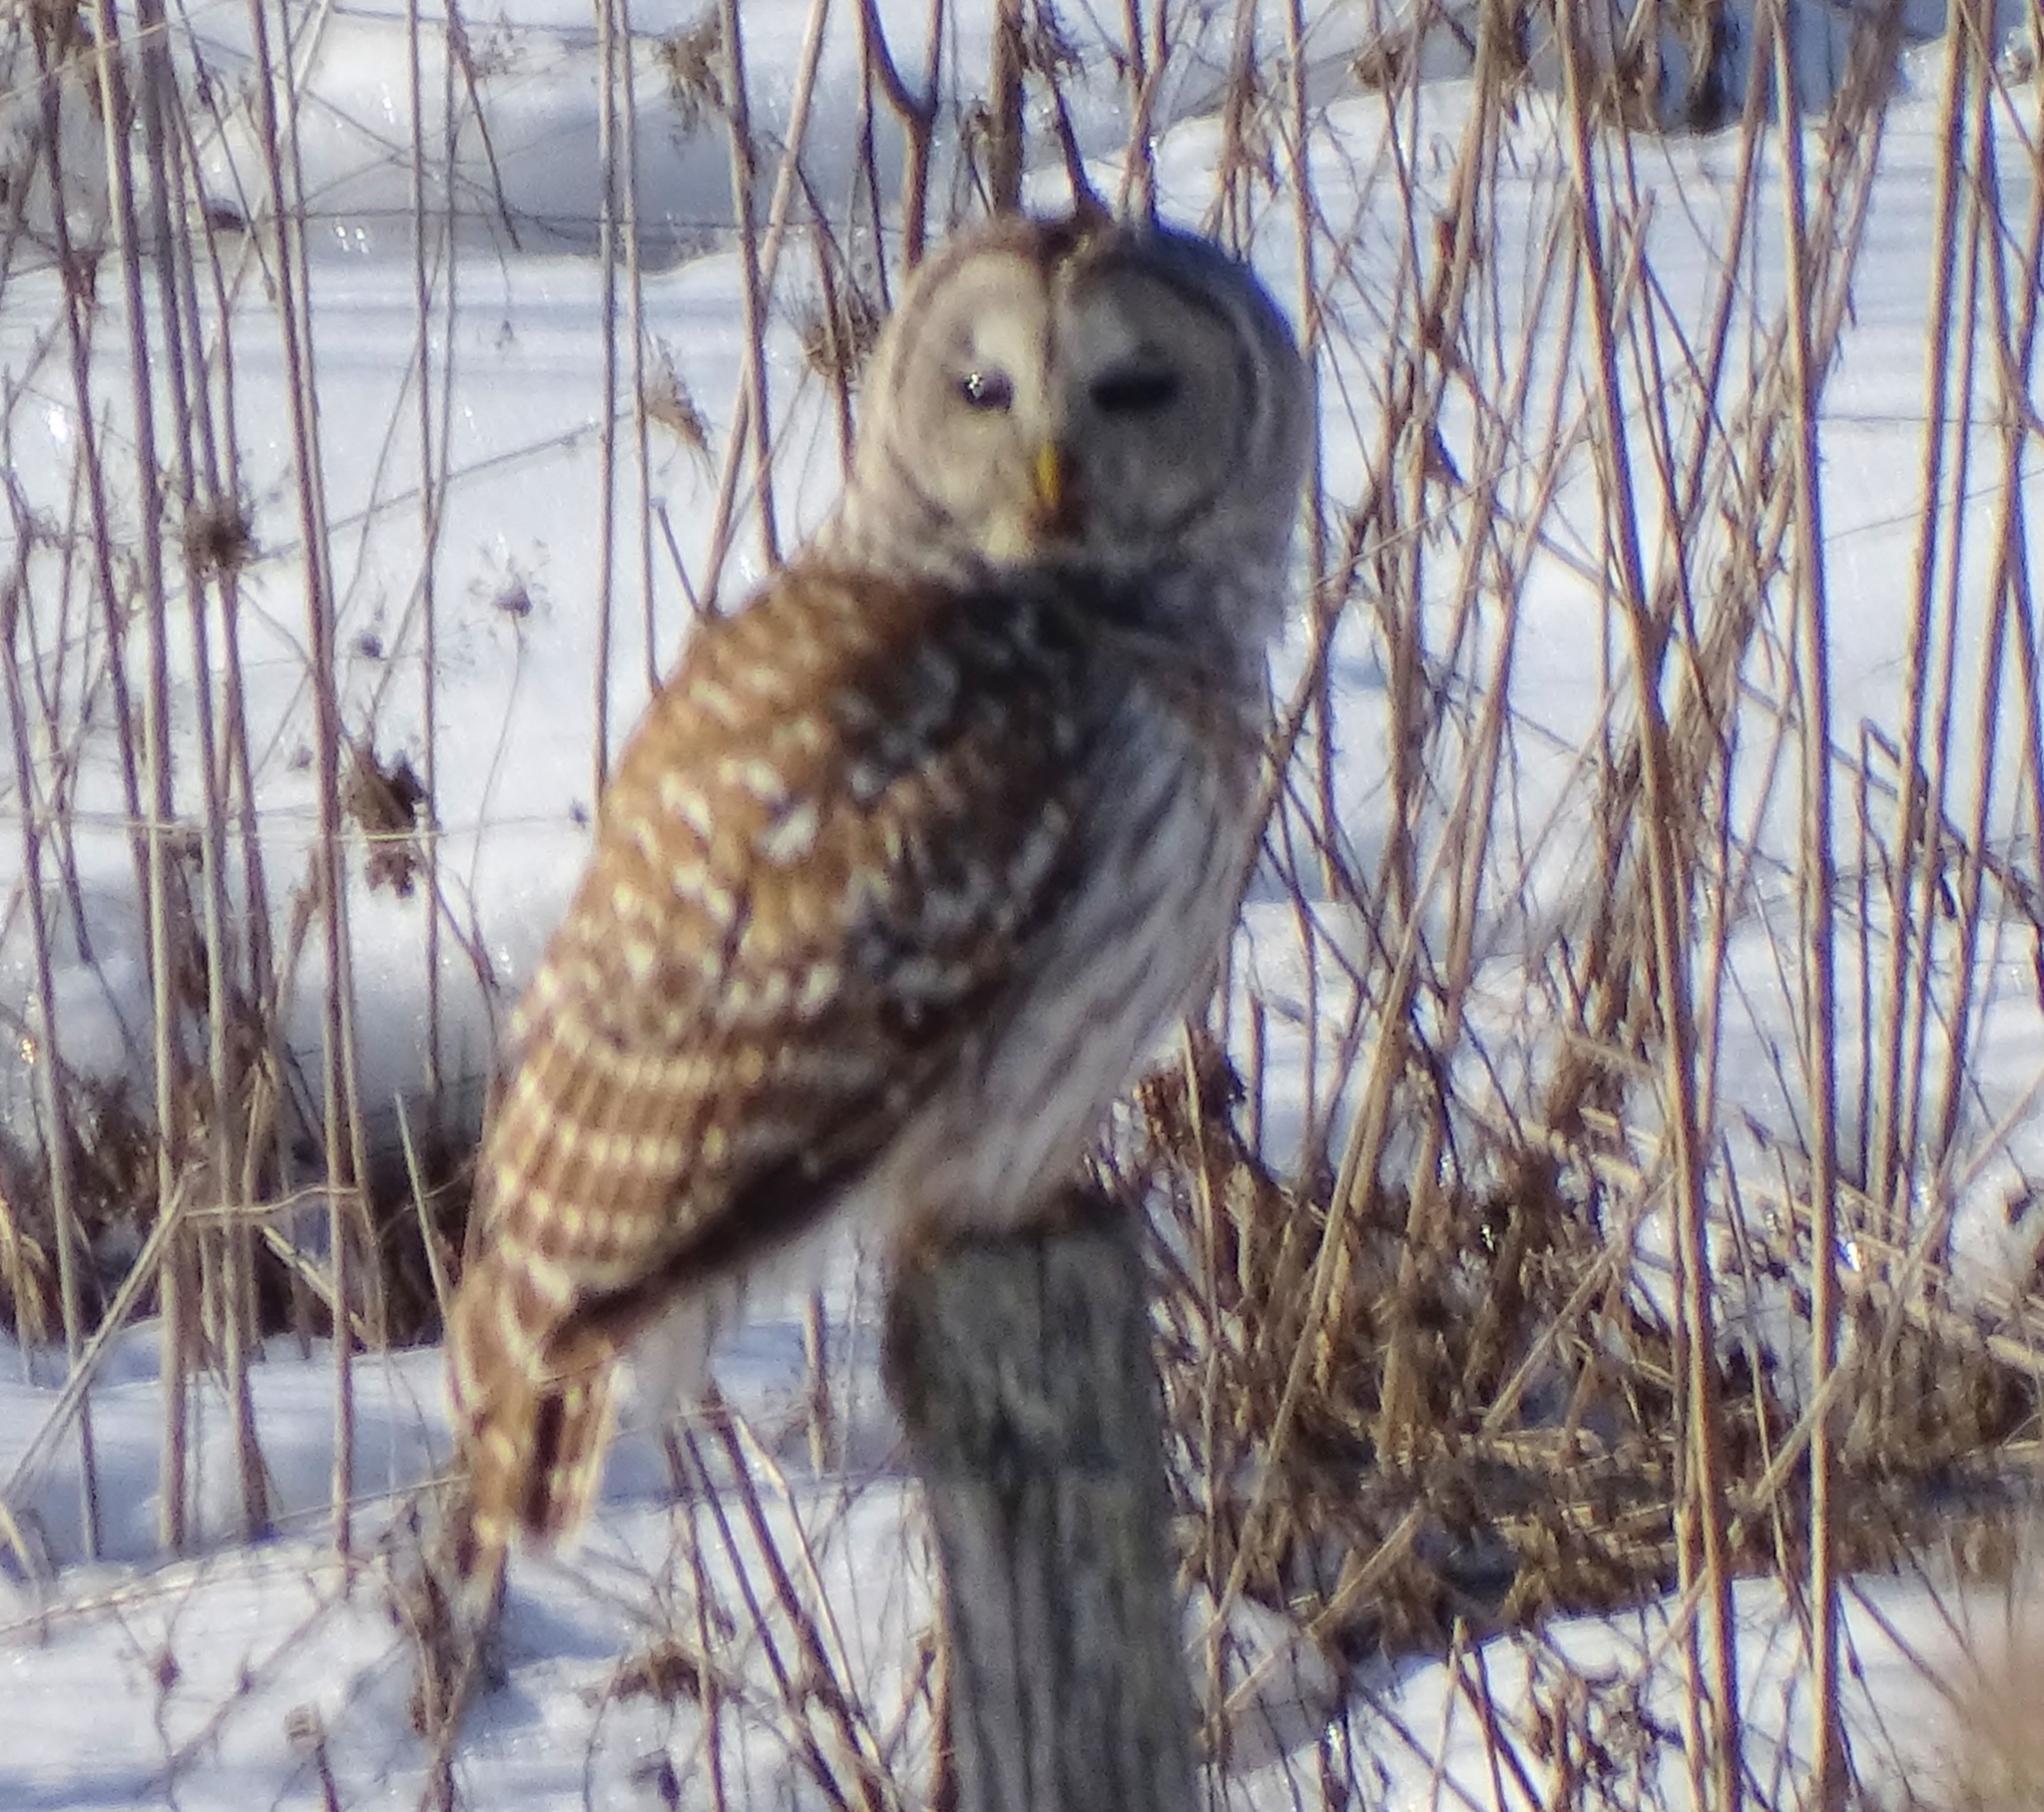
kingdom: Animalia
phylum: Chordata
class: Aves
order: Strigiformes
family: Strigidae
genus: Strix
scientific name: Strix varia
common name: Barred owl
